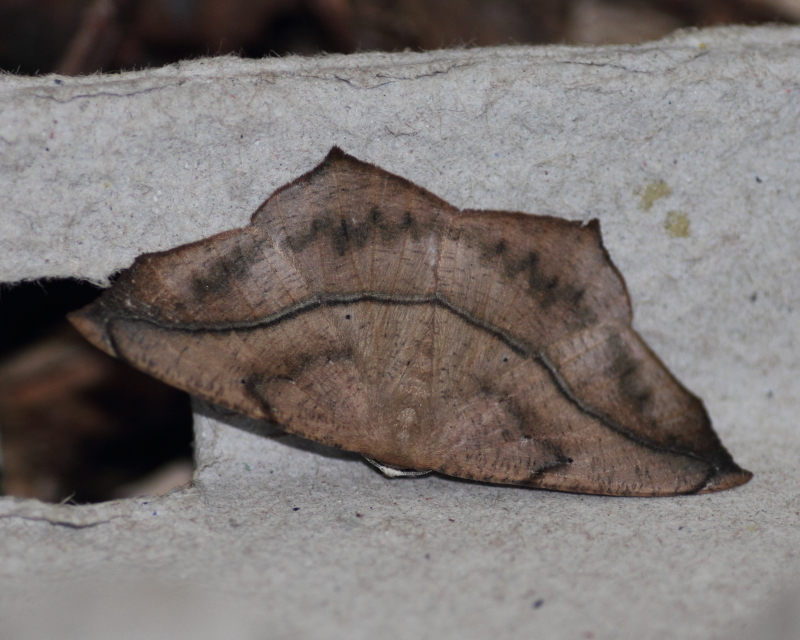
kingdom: Animalia
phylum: Arthropoda
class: Insecta
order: Lepidoptera
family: Geometridae
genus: Prochoerodes
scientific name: Prochoerodes lineola
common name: Large maple spanworm
